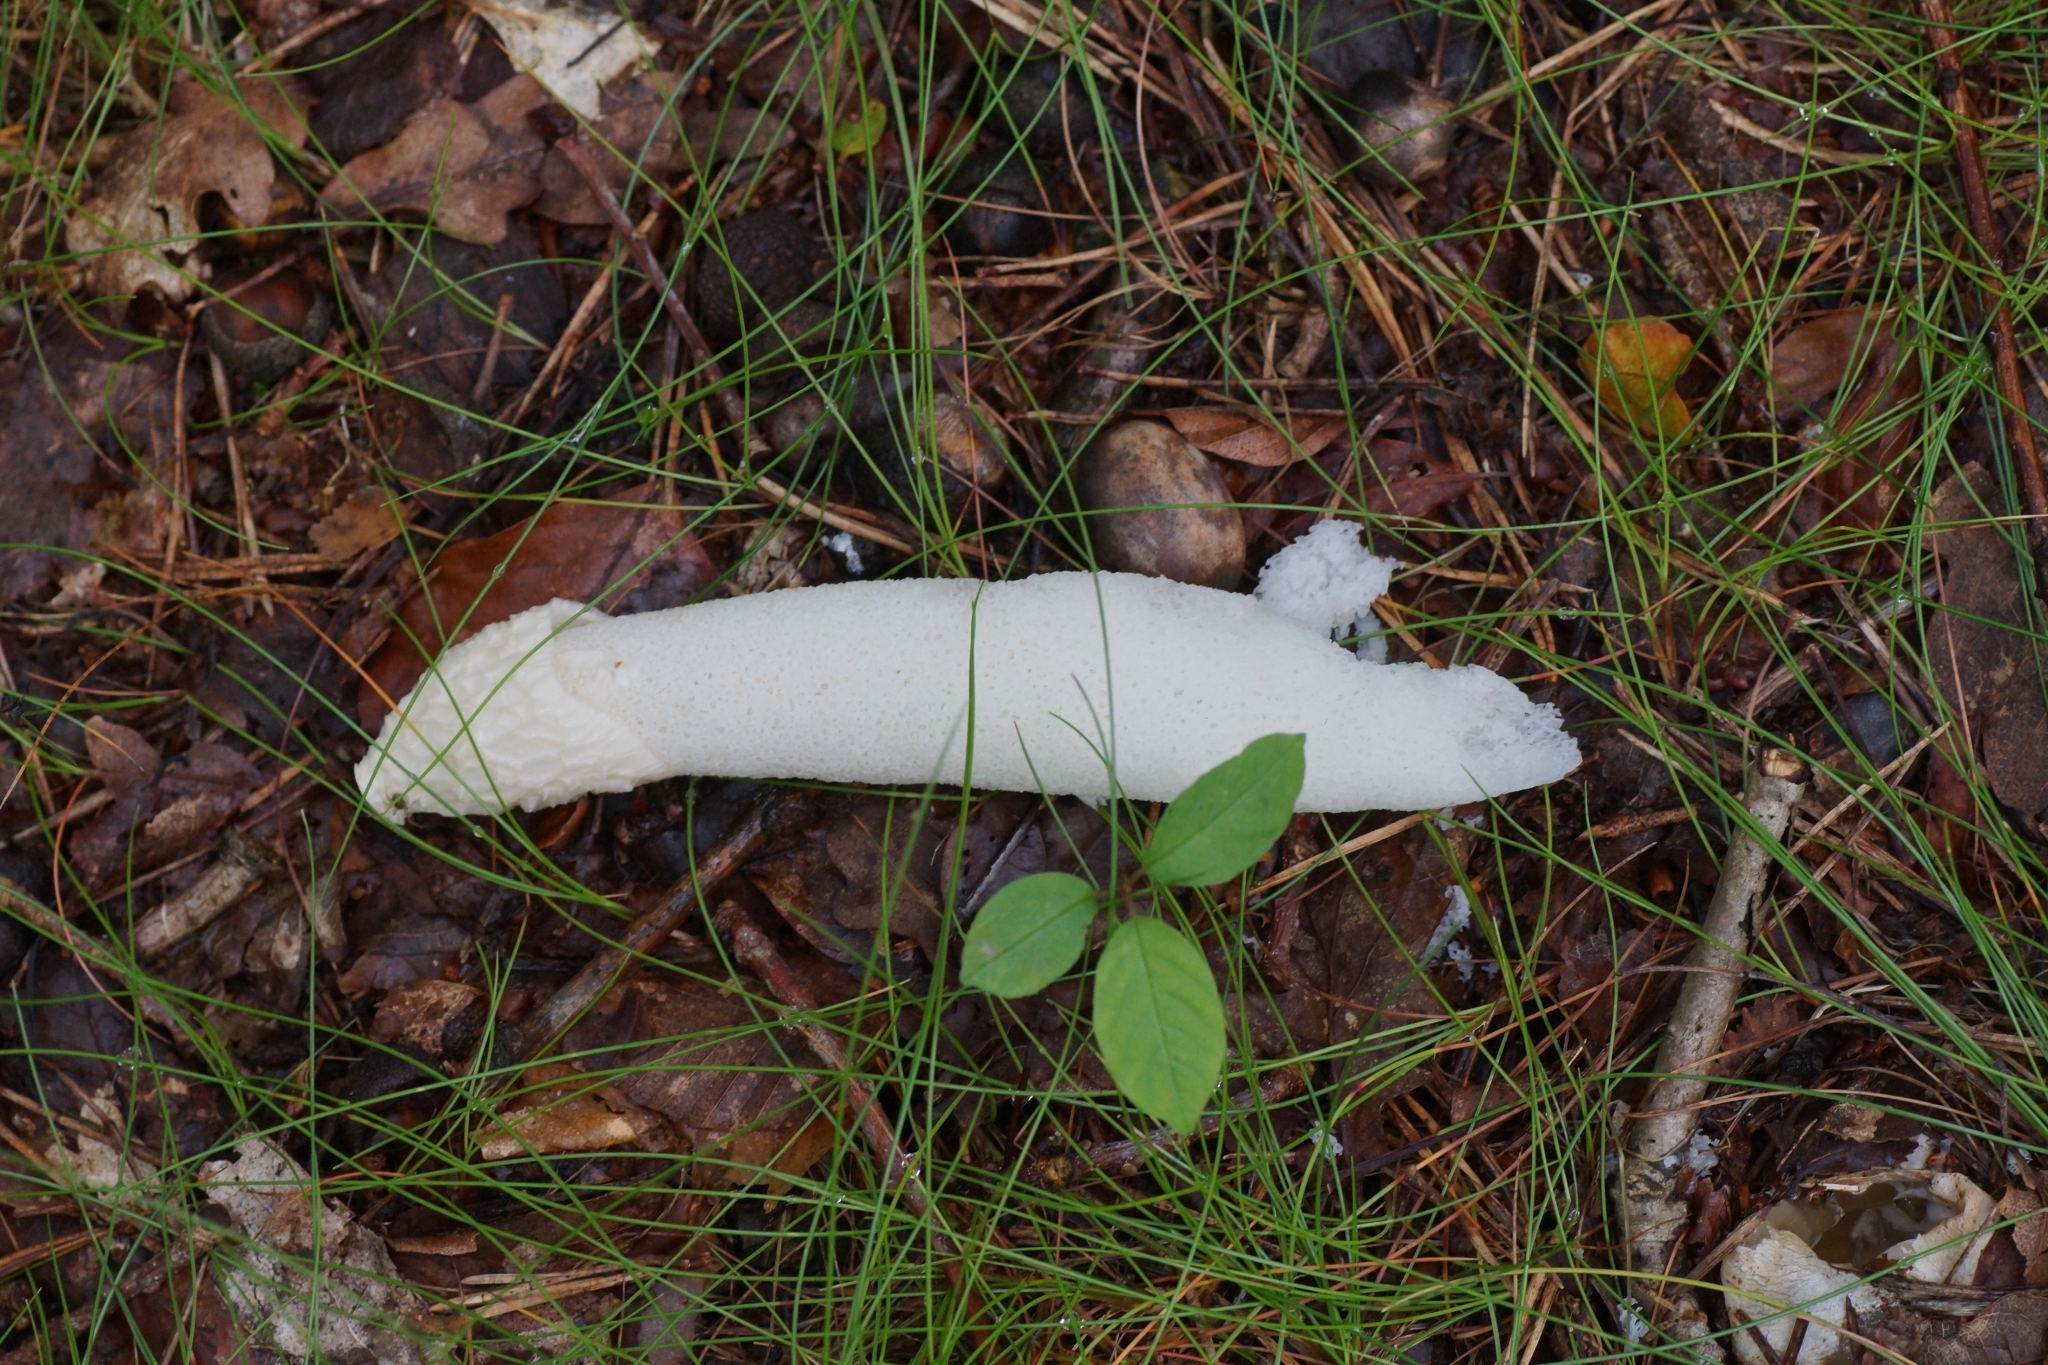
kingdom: Fungi
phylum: Basidiomycota
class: Agaricomycetes
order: Phallales
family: Phallaceae
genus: Phallus
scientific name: Phallus impudicus
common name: Common stinkhorn
